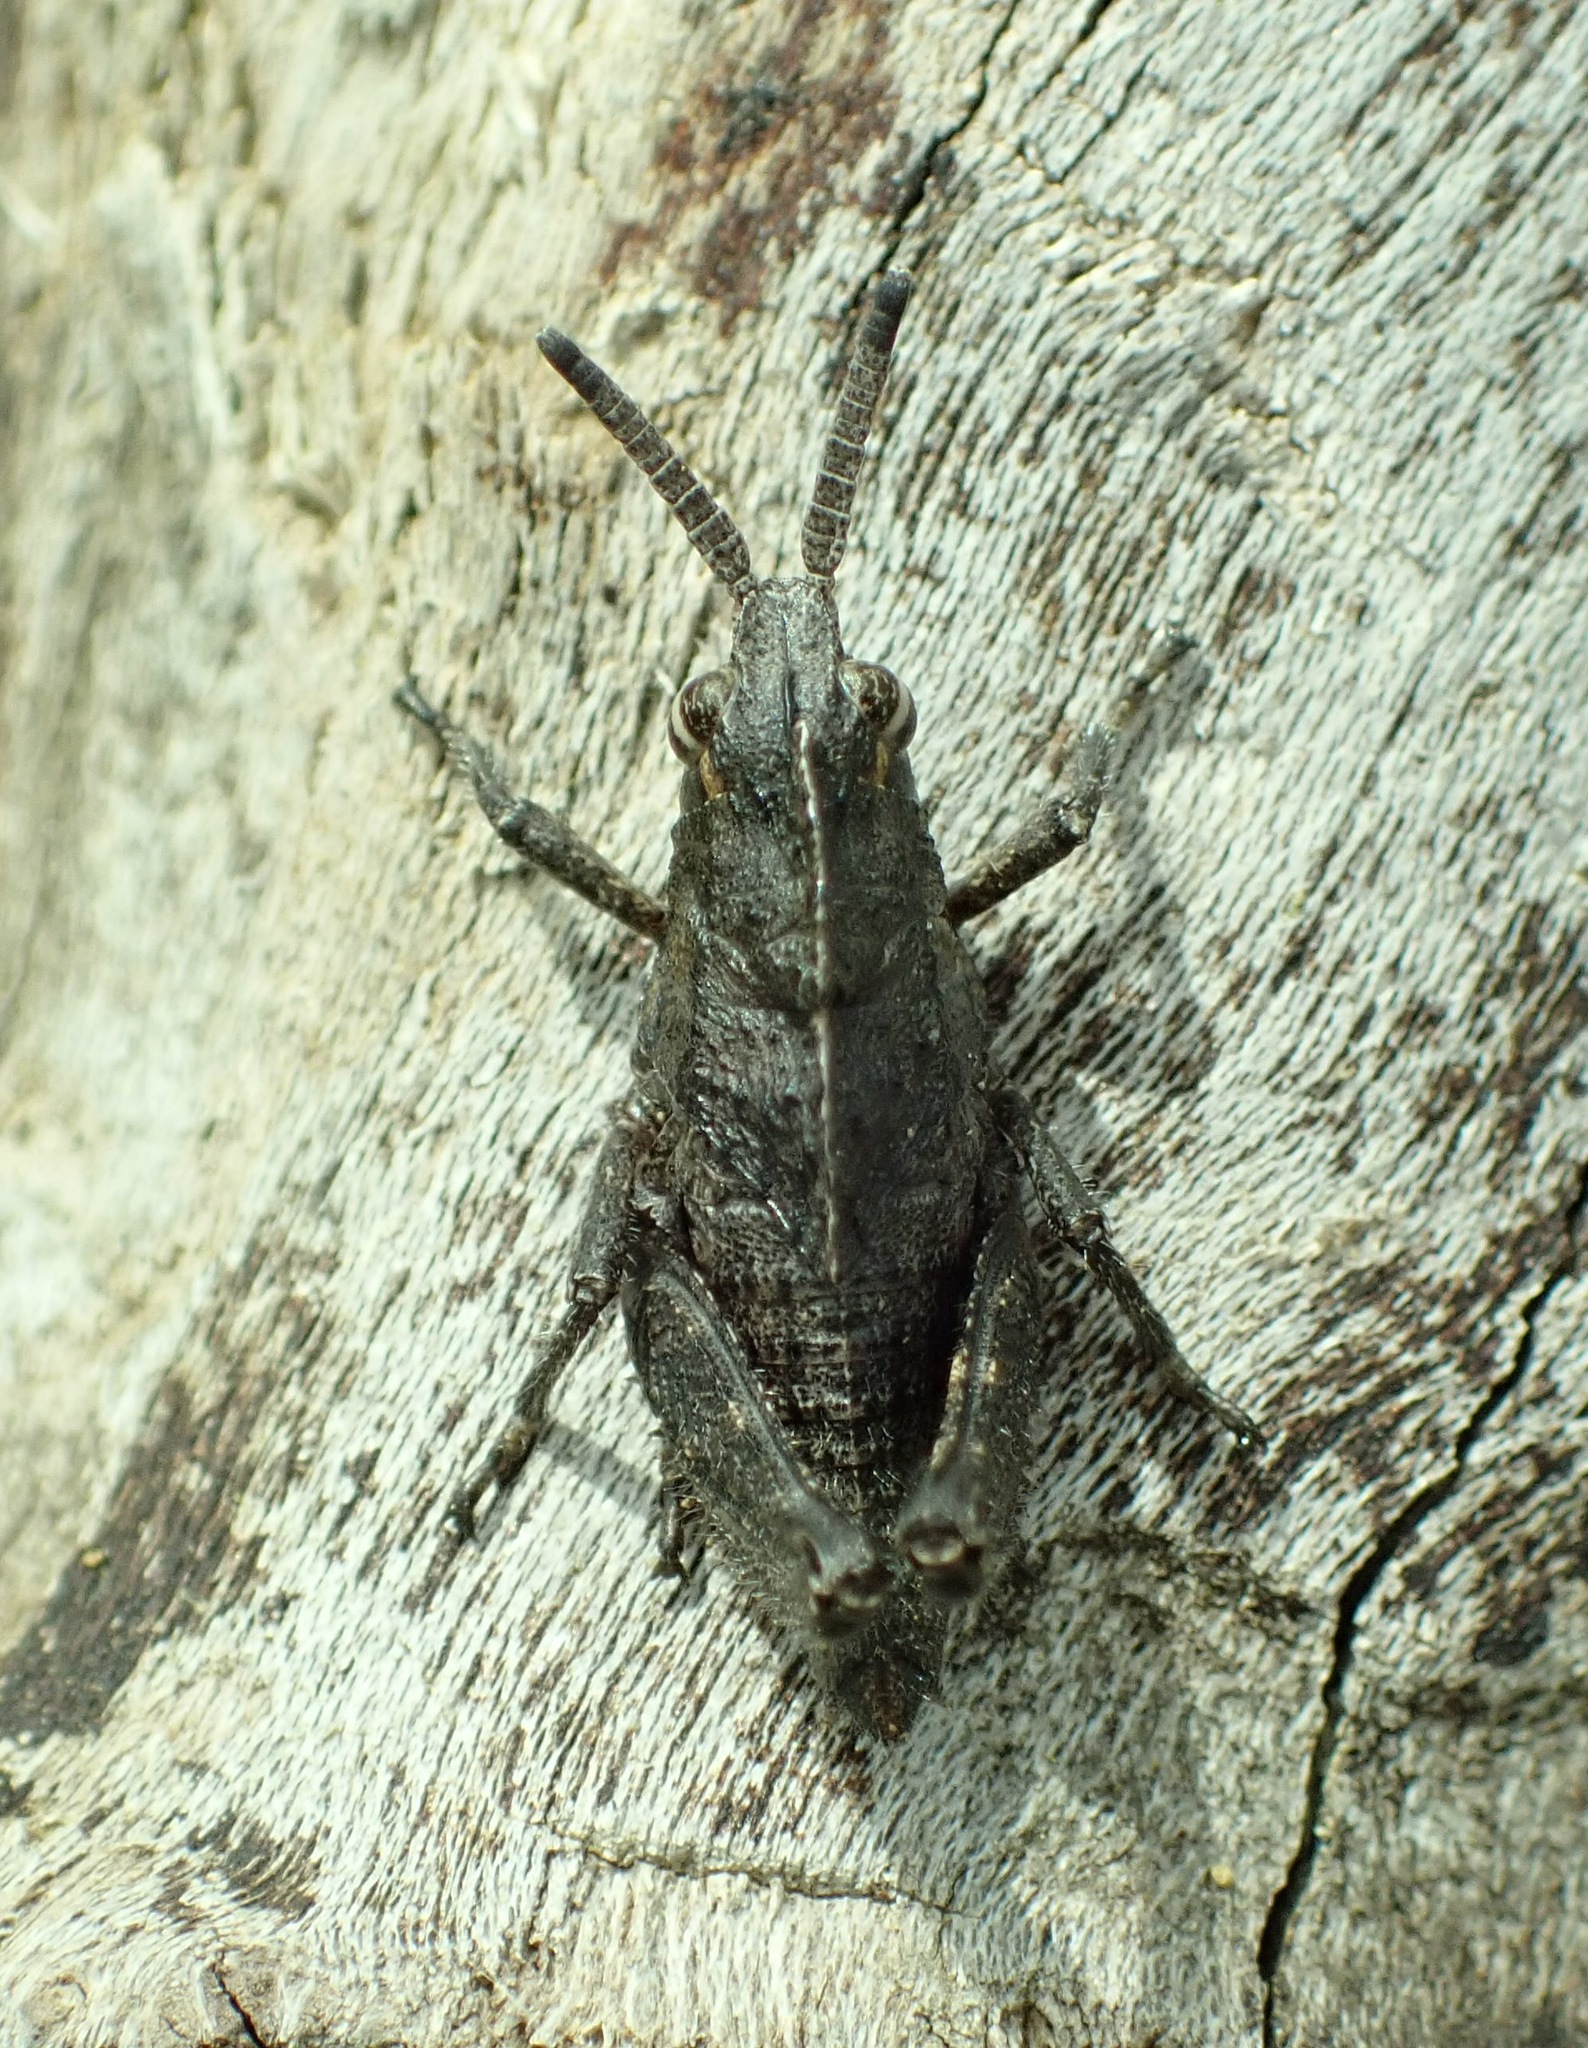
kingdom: Animalia
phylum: Arthropoda
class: Insecta
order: Orthoptera
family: Romaleidae
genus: Dracotettix
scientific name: Dracotettix monstrosus
